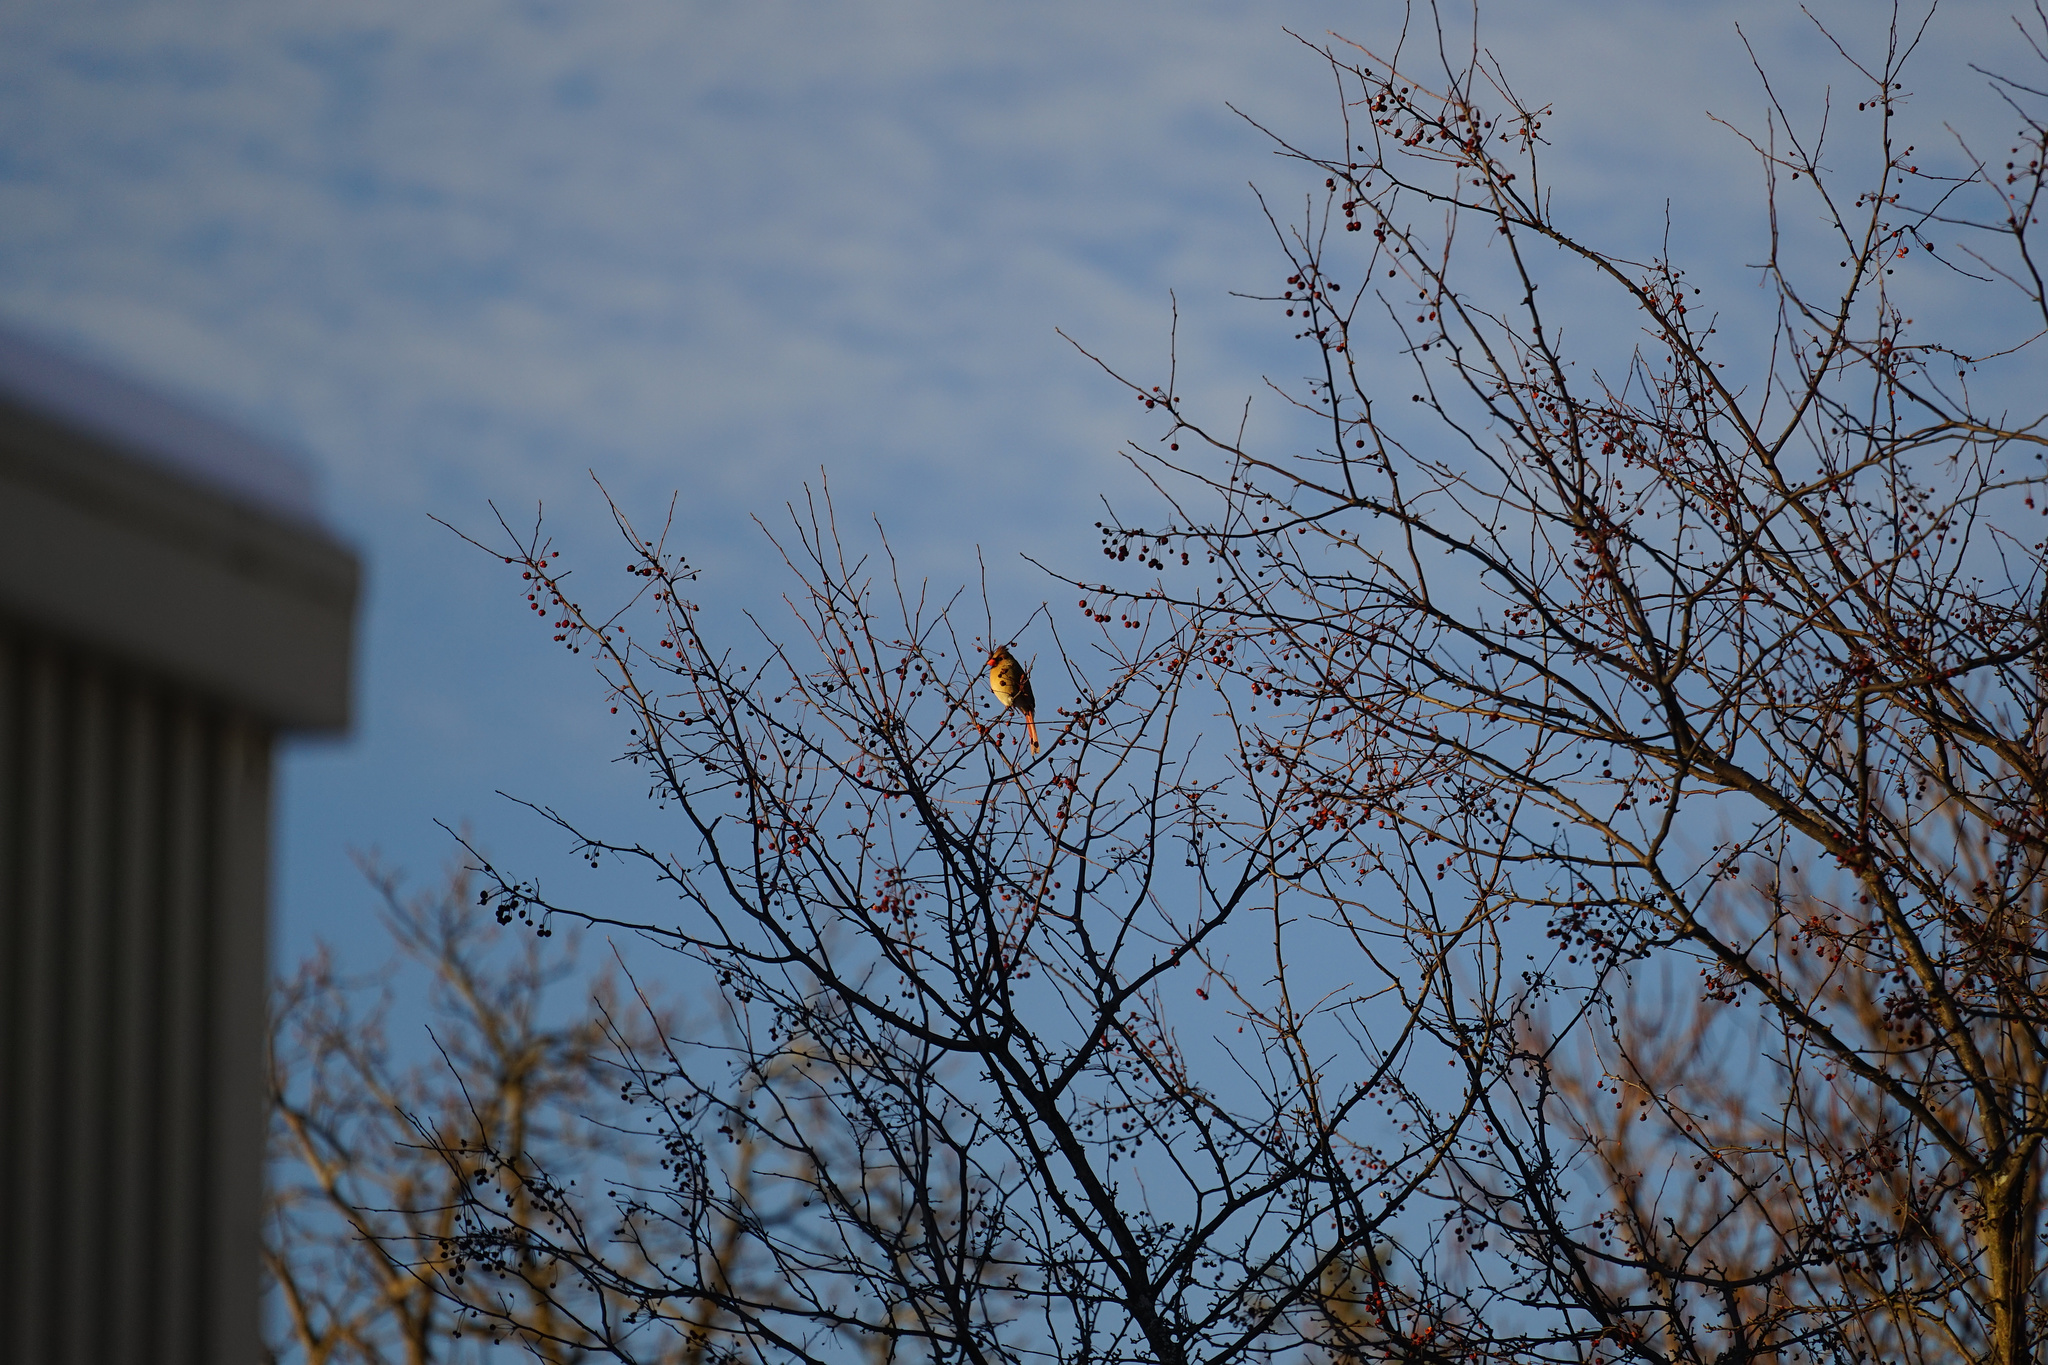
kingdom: Animalia
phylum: Chordata
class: Aves
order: Passeriformes
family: Cardinalidae
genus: Cardinalis
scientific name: Cardinalis cardinalis
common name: Northern cardinal
